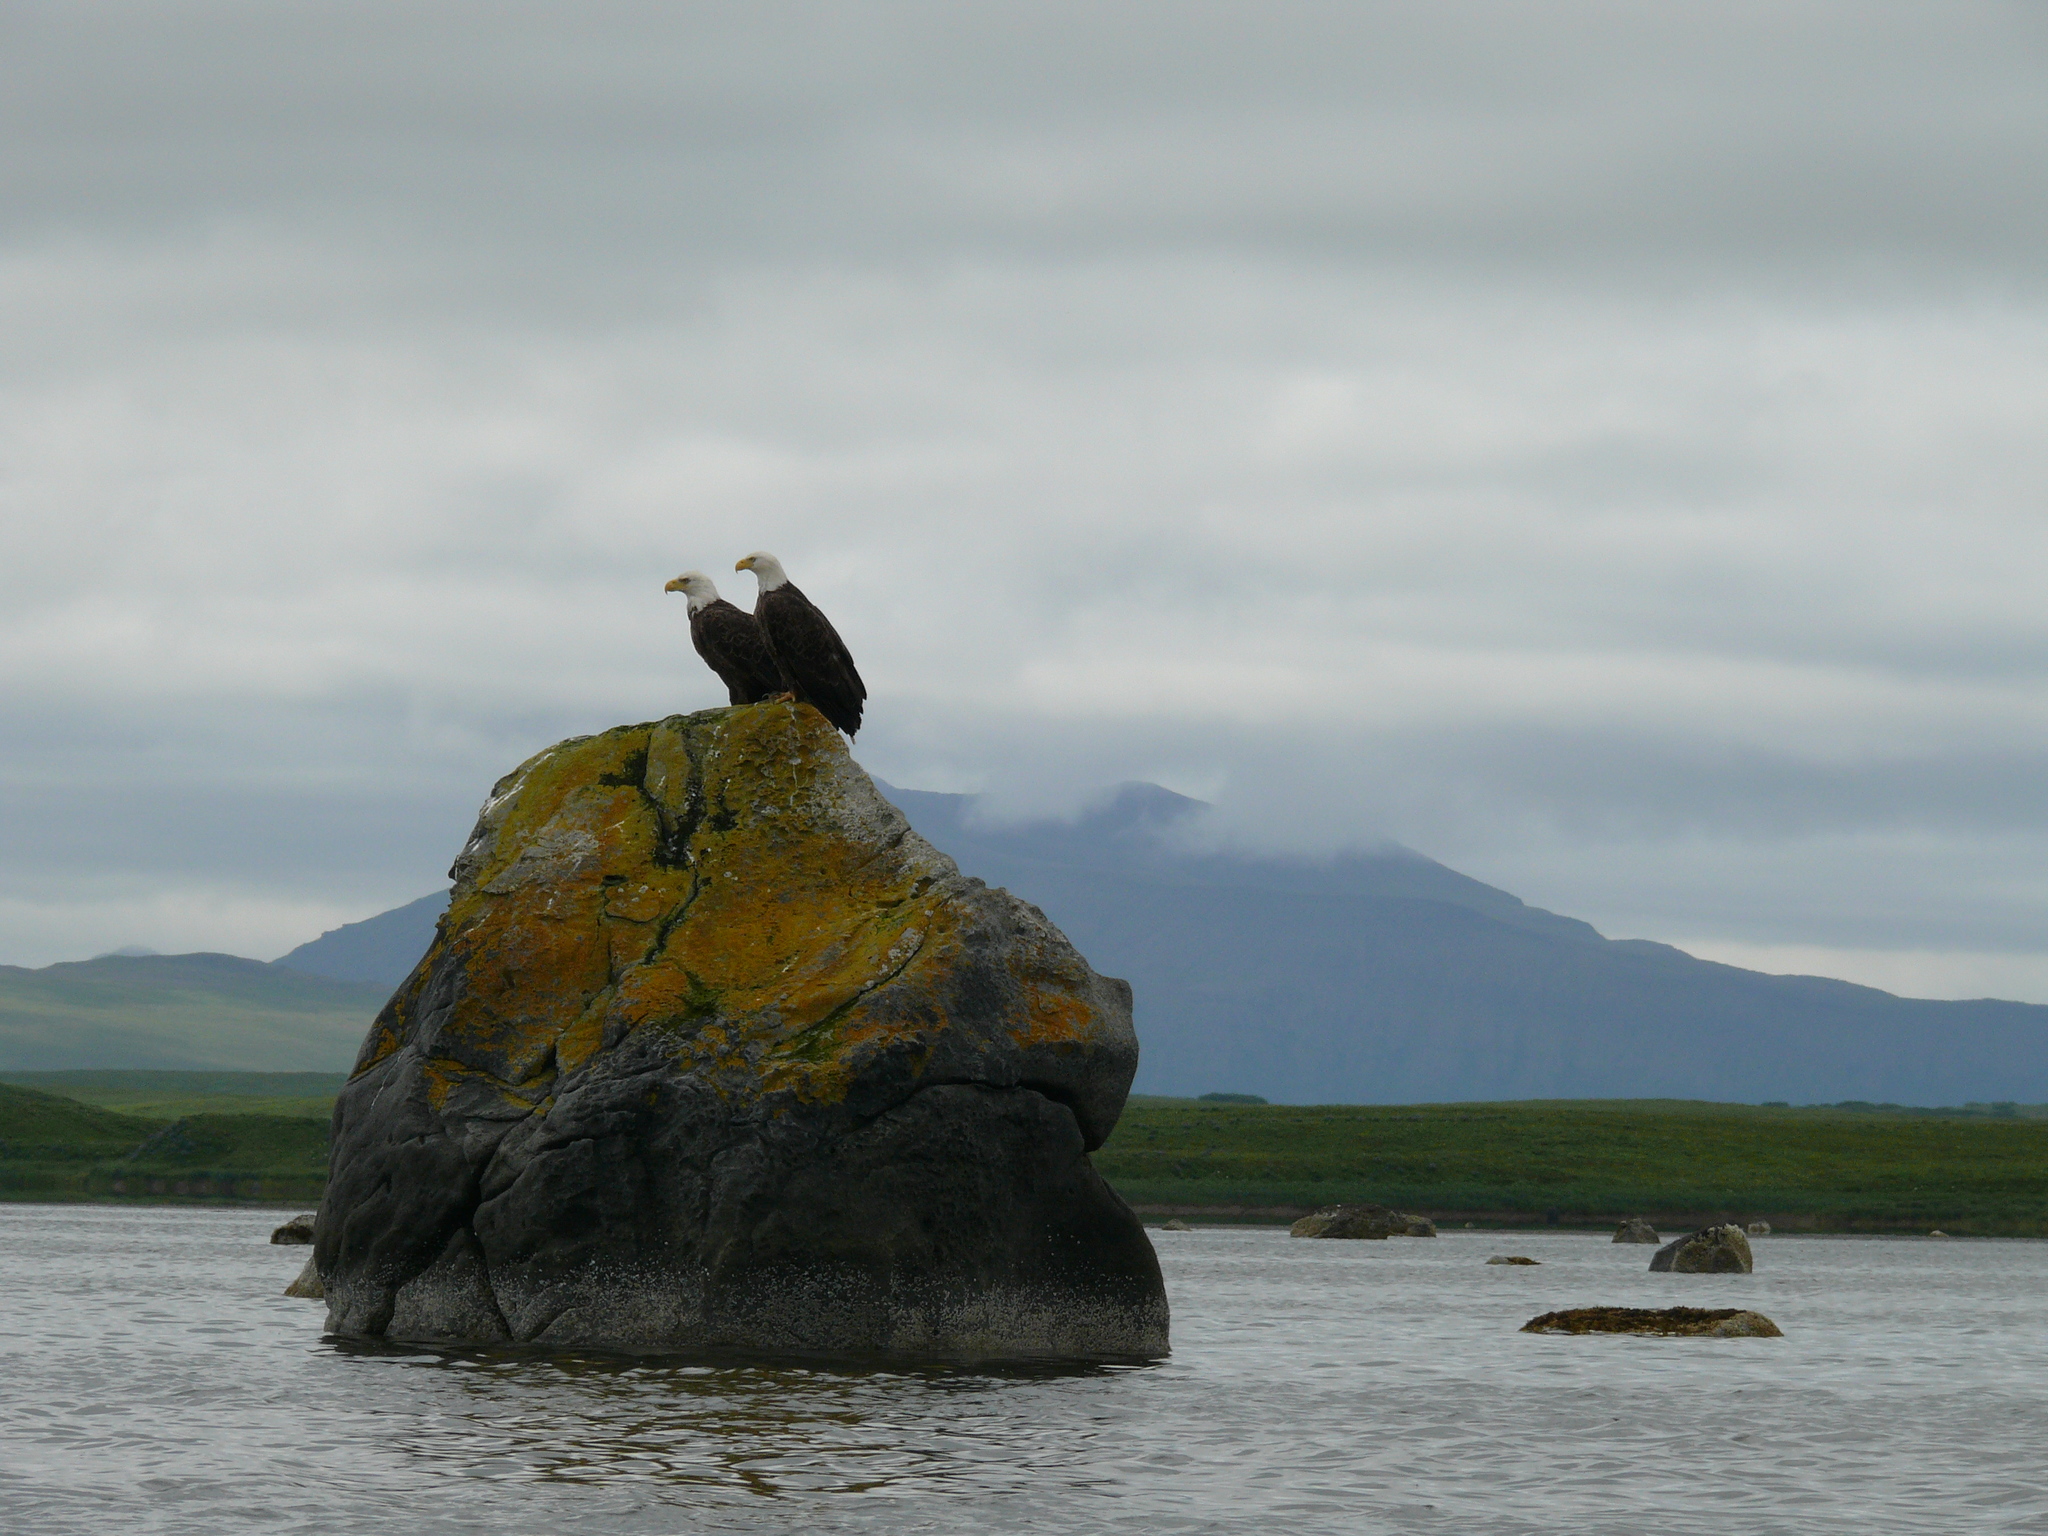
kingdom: Animalia
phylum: Chordata
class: Aves
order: Accipitriformes
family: Accipitridae
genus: Haliaeetus
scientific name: Haliaeetus leucocephalus
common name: Bald eagle
